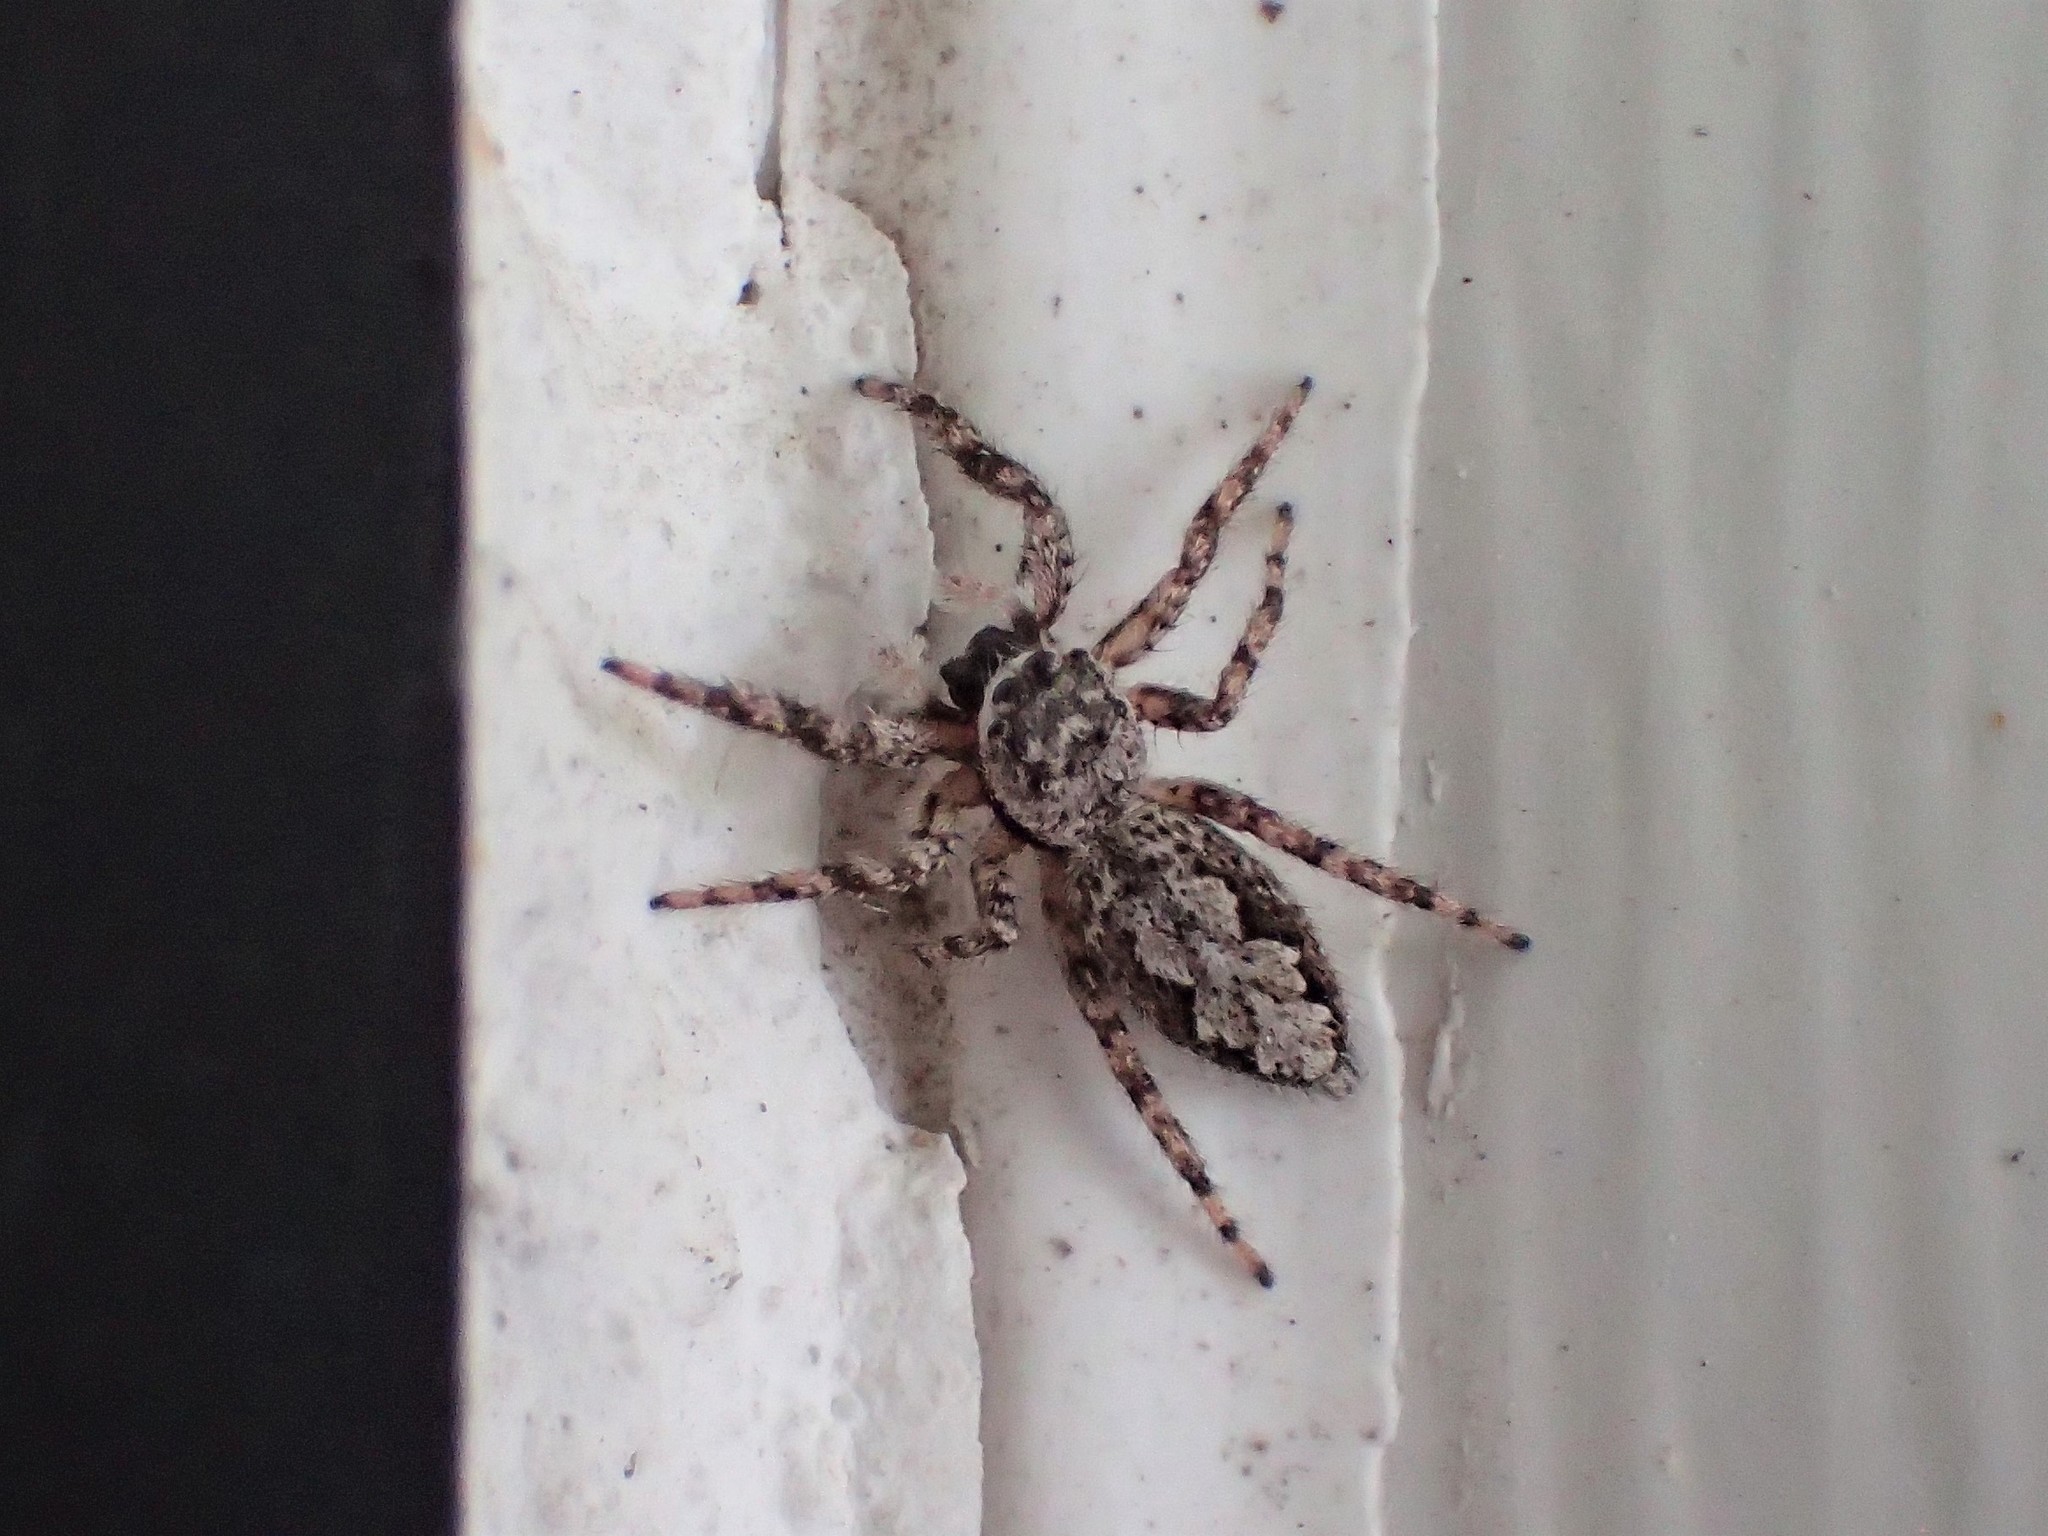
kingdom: Animalia
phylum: Arthropoda
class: Arachnida
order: Araneae
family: Salticidae
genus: Platycryptus
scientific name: Platycryptus undatus
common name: Tan jumping spider
